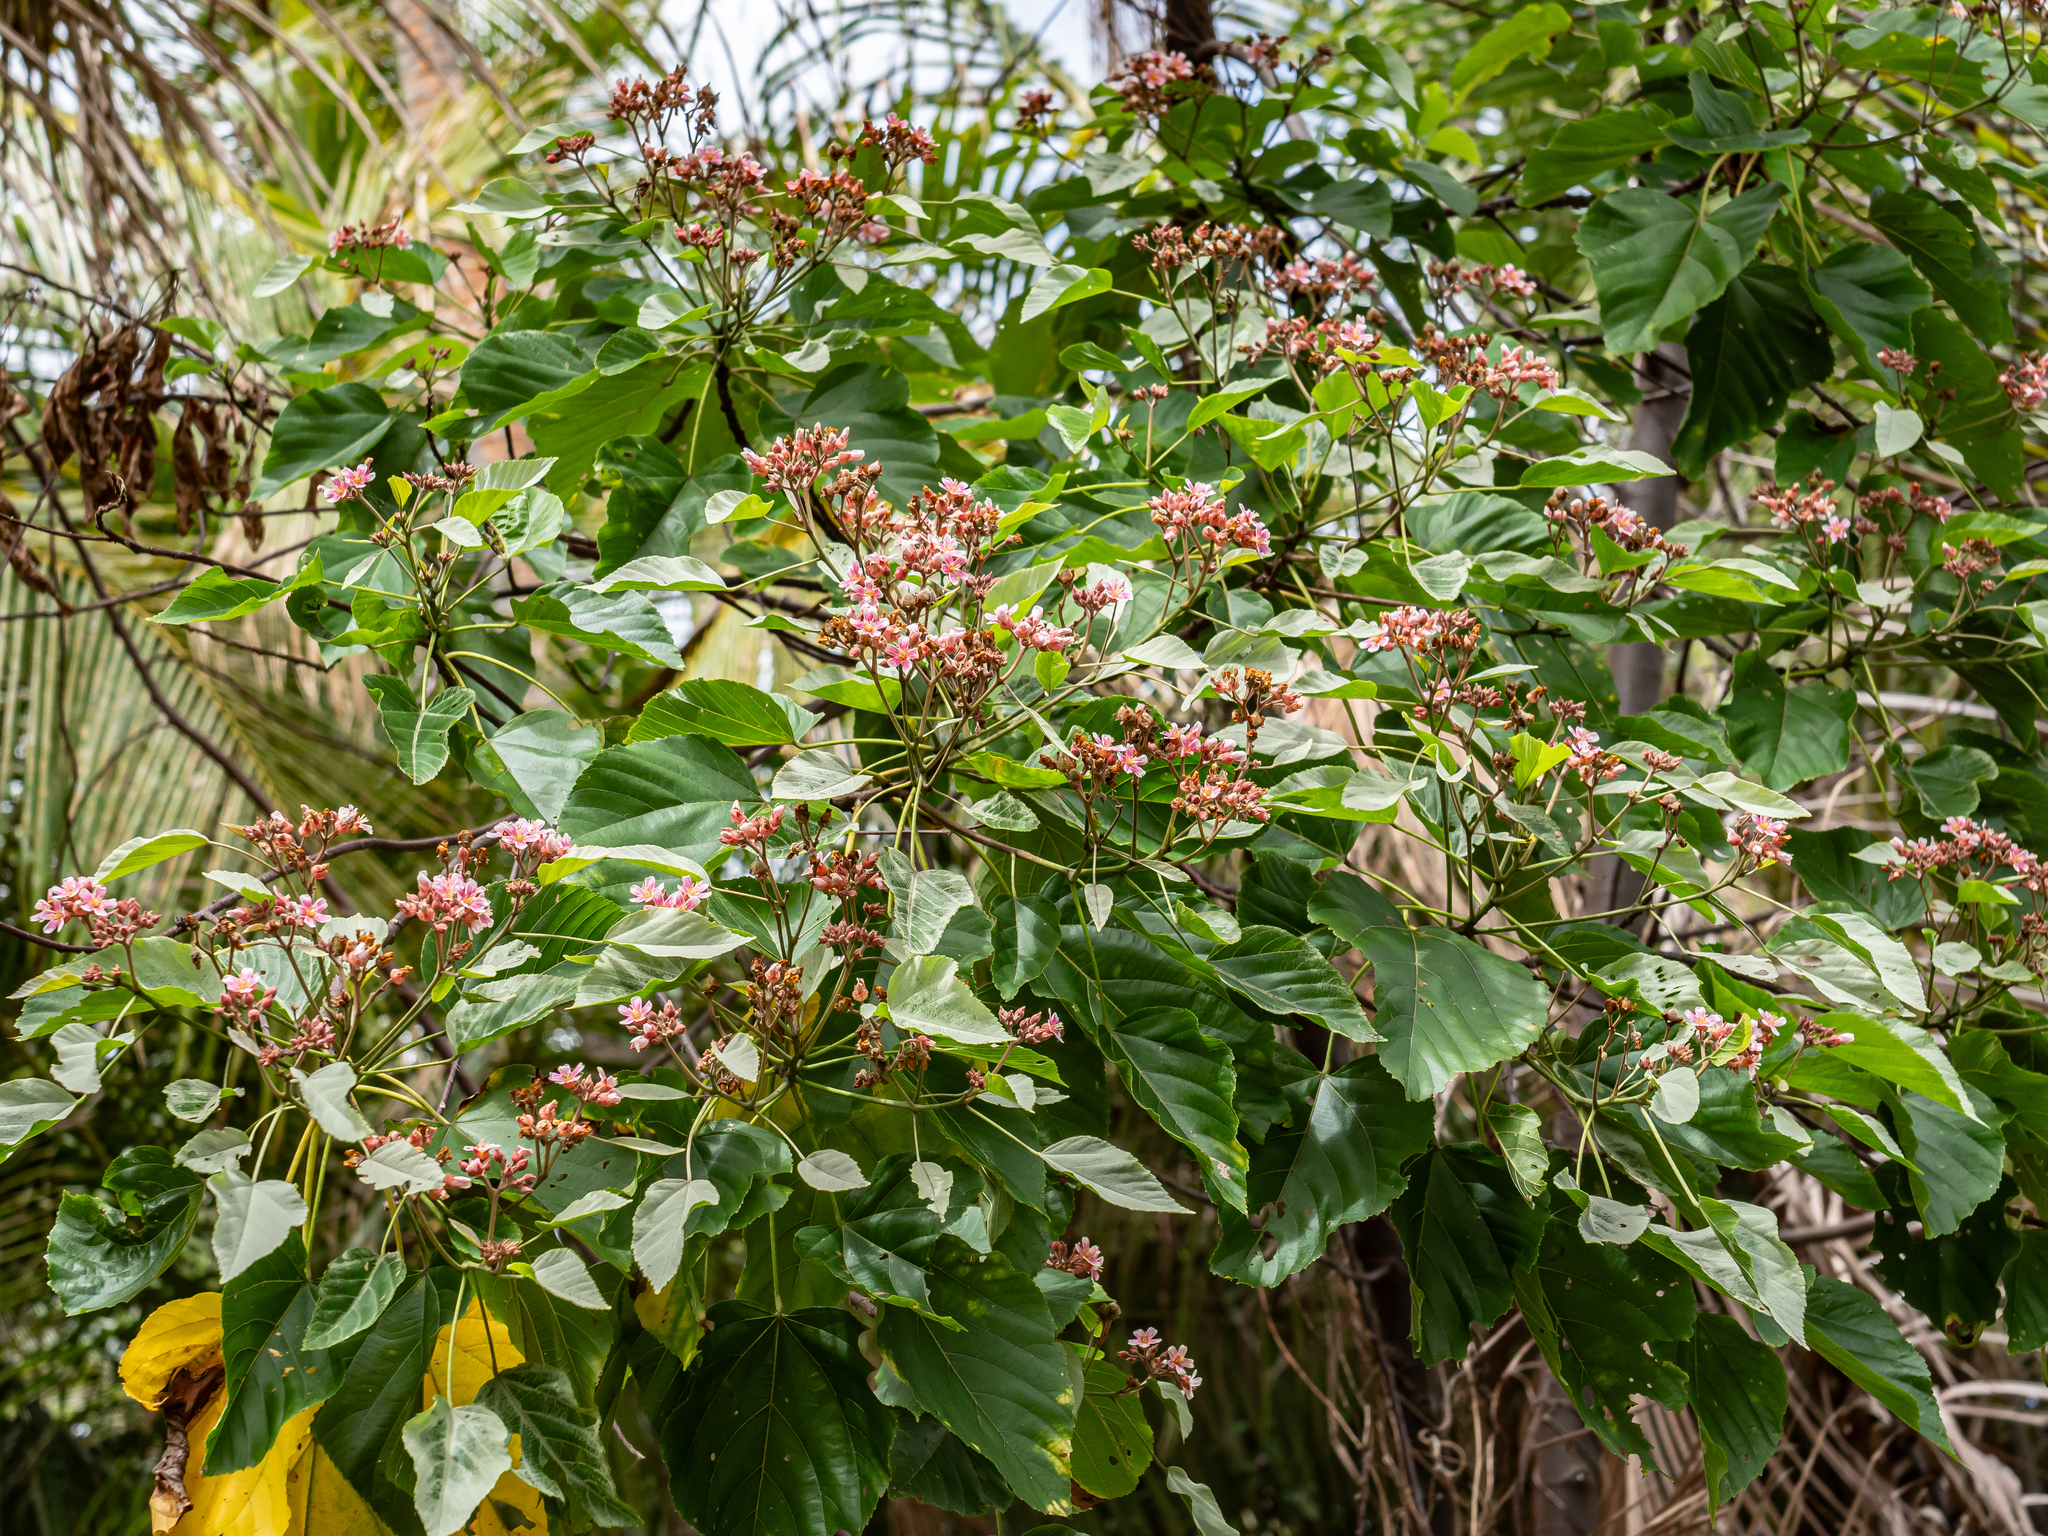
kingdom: Plantae
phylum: Tracheophyta
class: Magnoliopsida
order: Malvales
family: Malvaceae
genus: Melochia
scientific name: Melochia odorata
